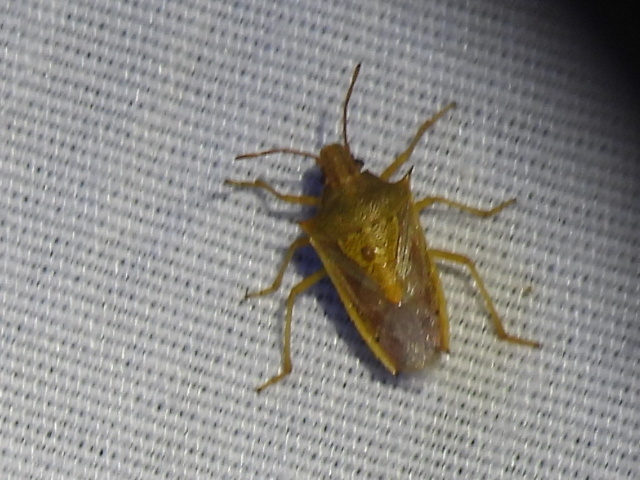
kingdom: Animalia
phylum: Arthropoda
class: Insecta
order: Hemiptera
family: Pentatomidae
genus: Oebalus
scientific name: Oebalus pugnax
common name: Rice stink bug
